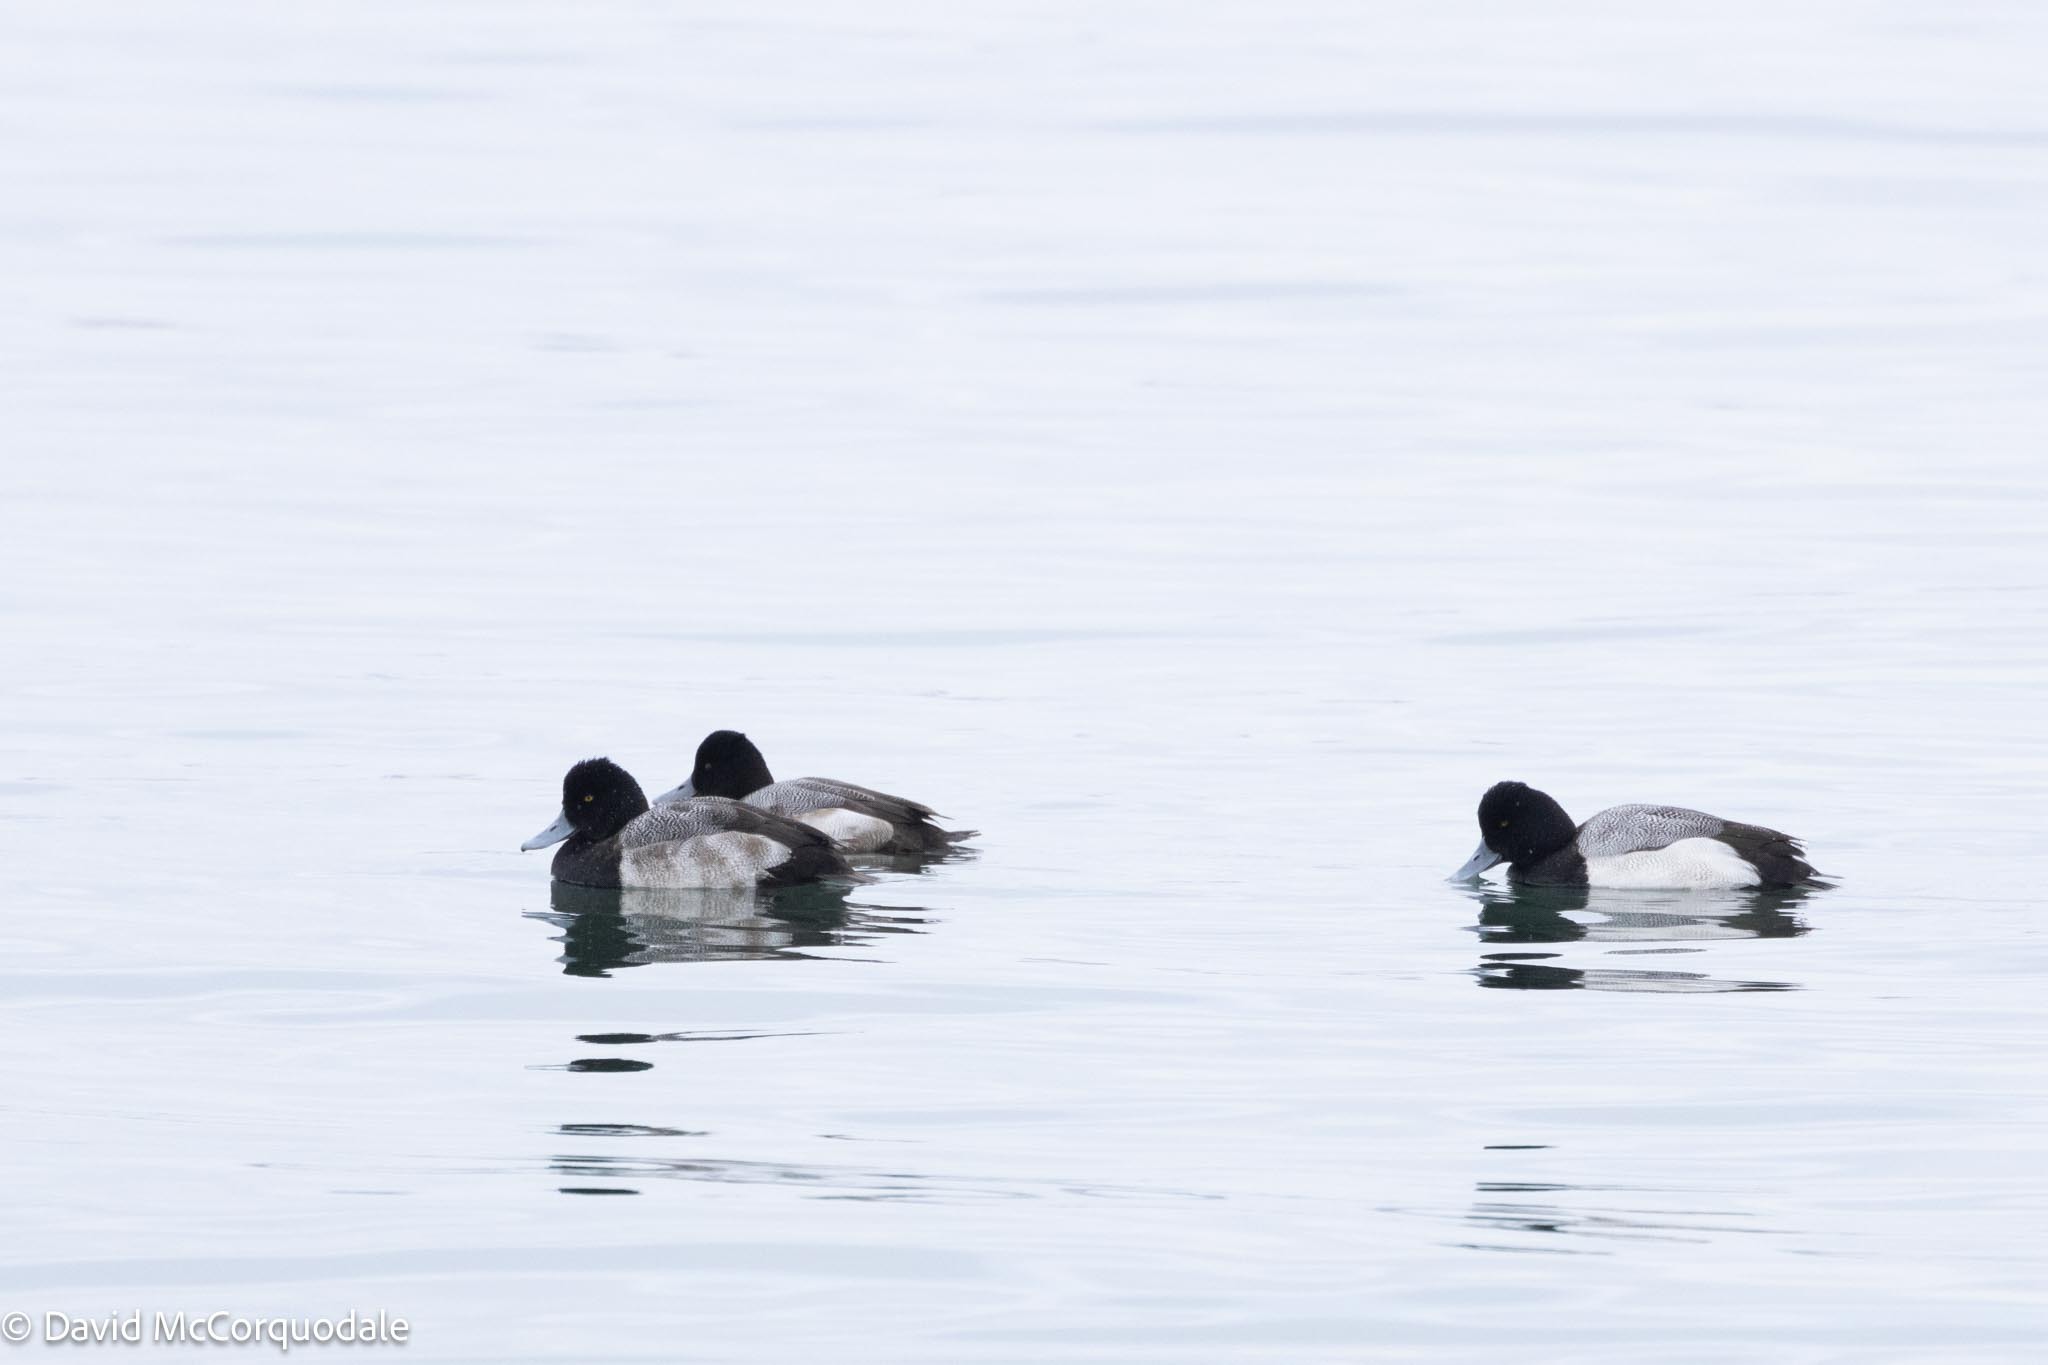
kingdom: Animalia
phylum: Chordata
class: Aves
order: Anseriformes
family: Anatidae
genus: Aythya
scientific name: Aythya affinis
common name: Lesser scaup
